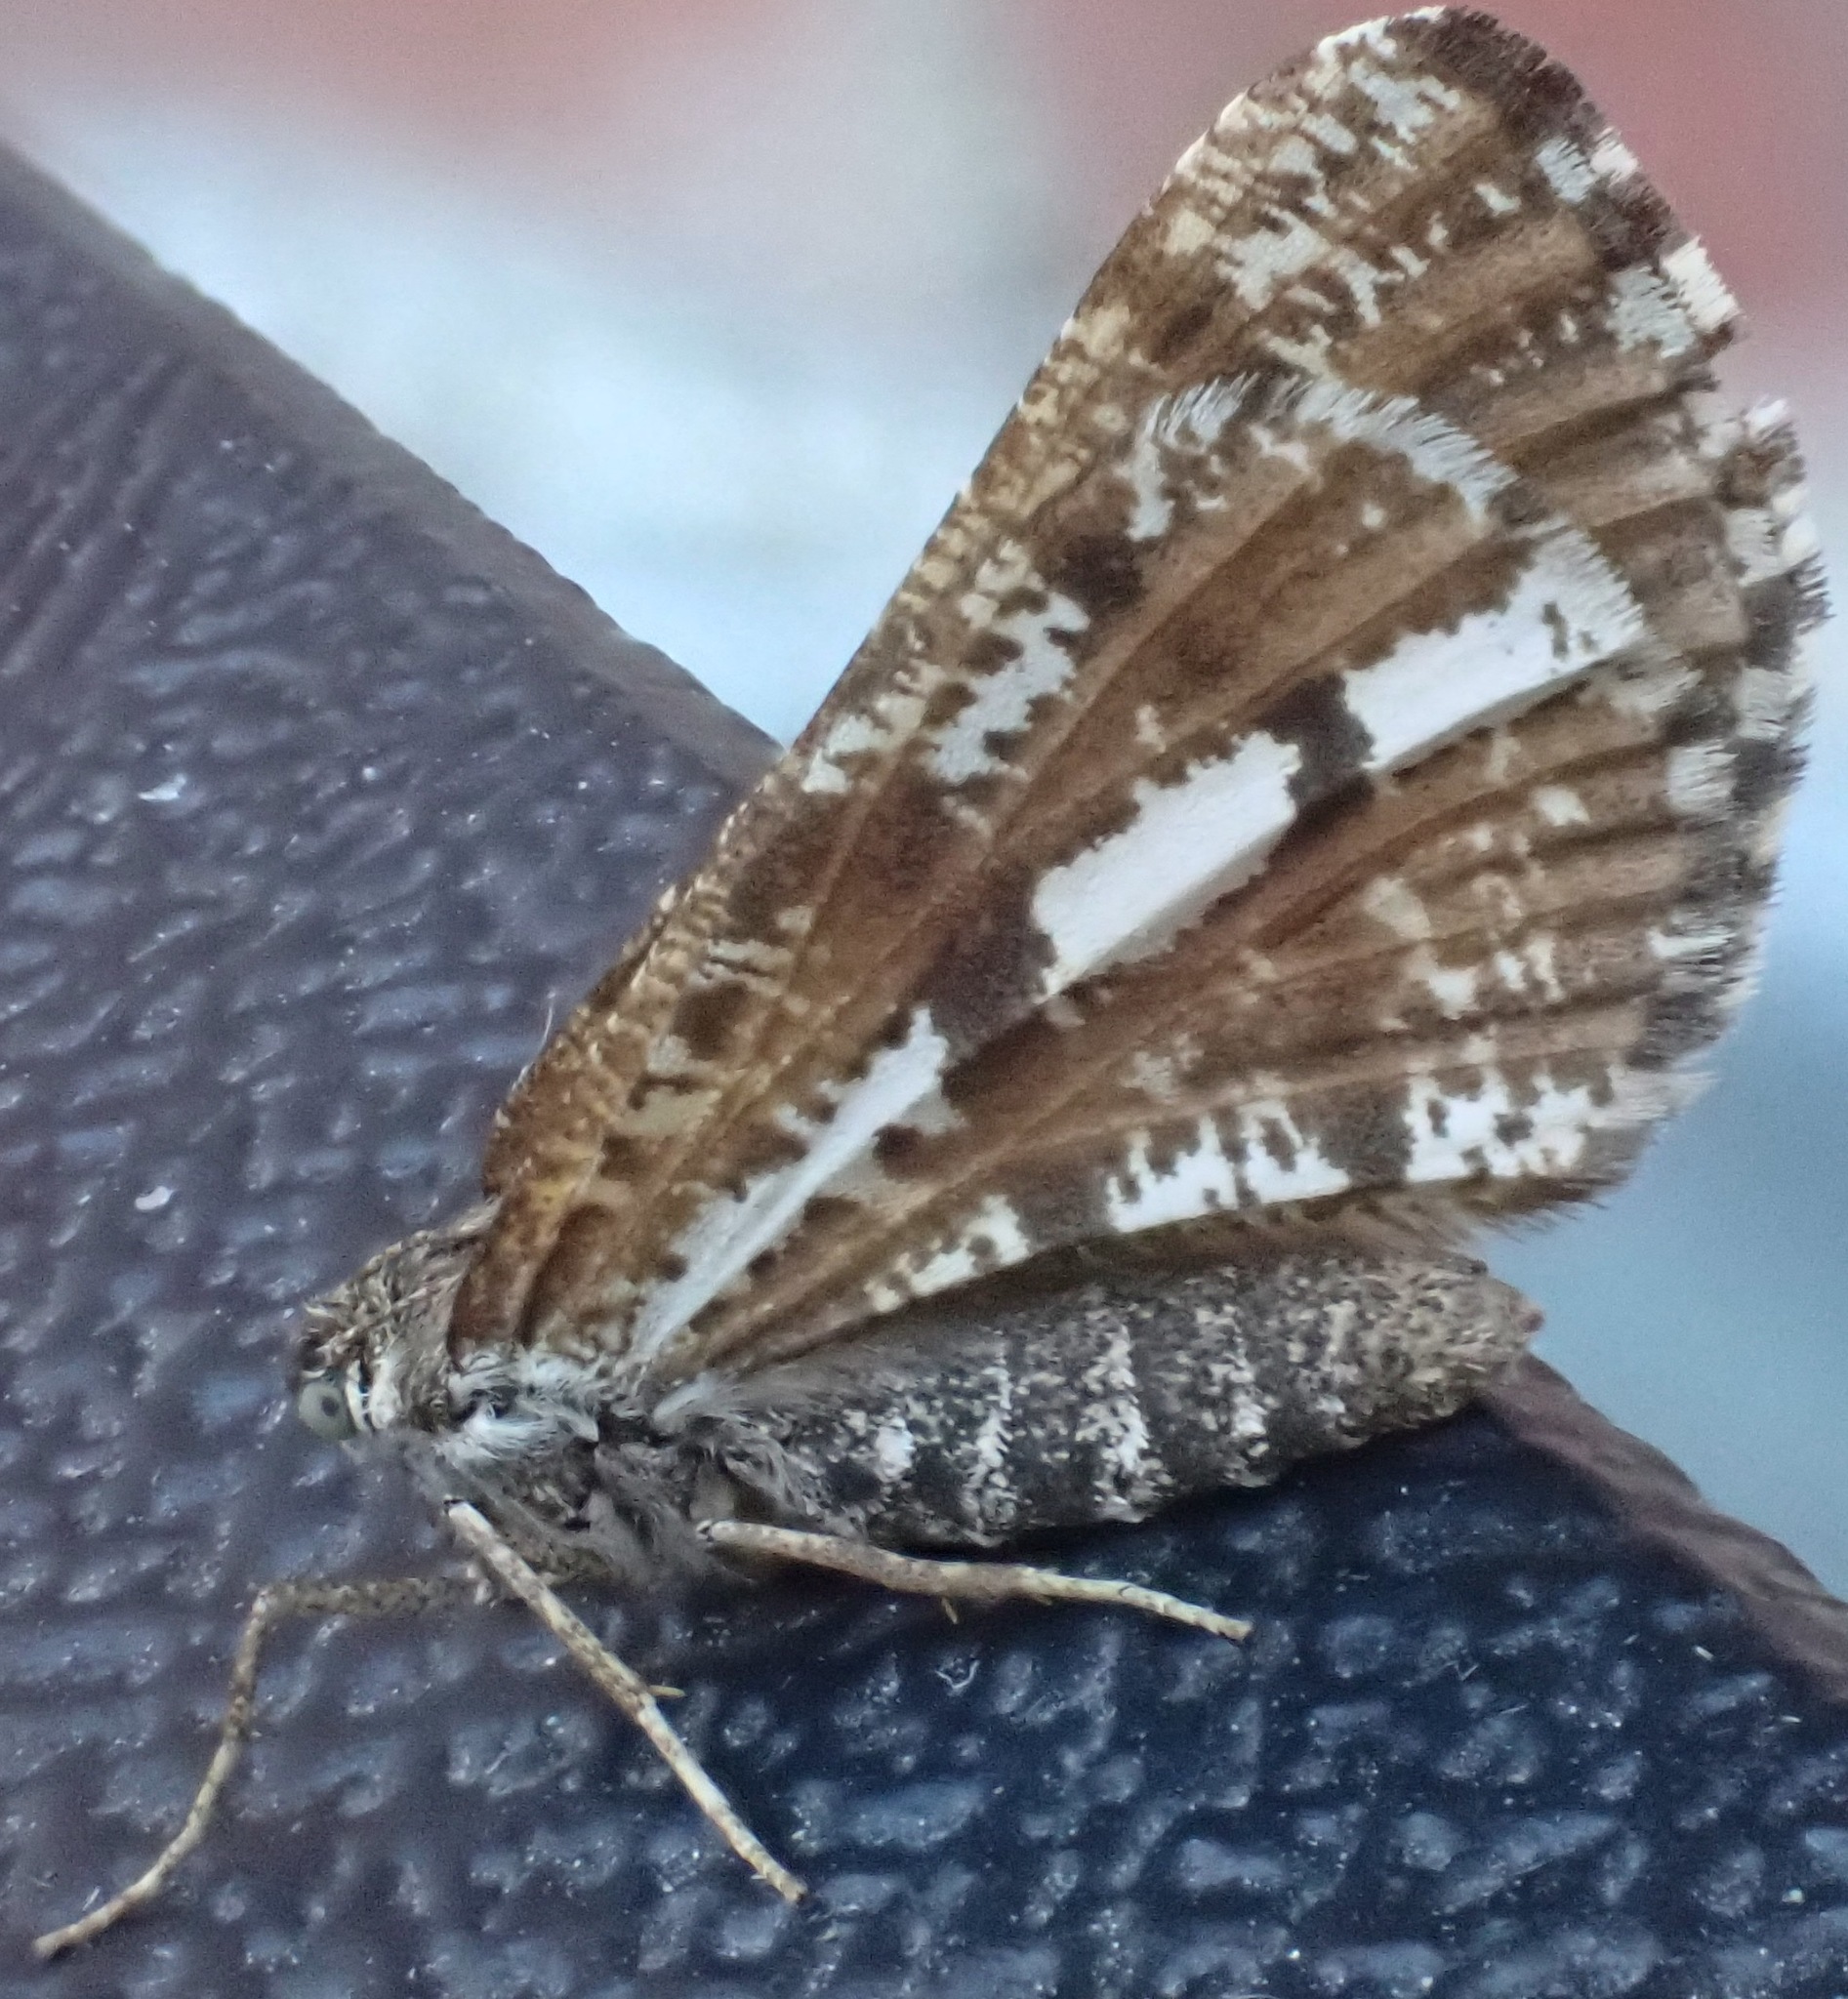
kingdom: Animalia
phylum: Arthropoda
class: Insecta
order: Lepidoptera
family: Geometridae
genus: Bupalus
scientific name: Bupalus piniaria
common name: Bordered white
